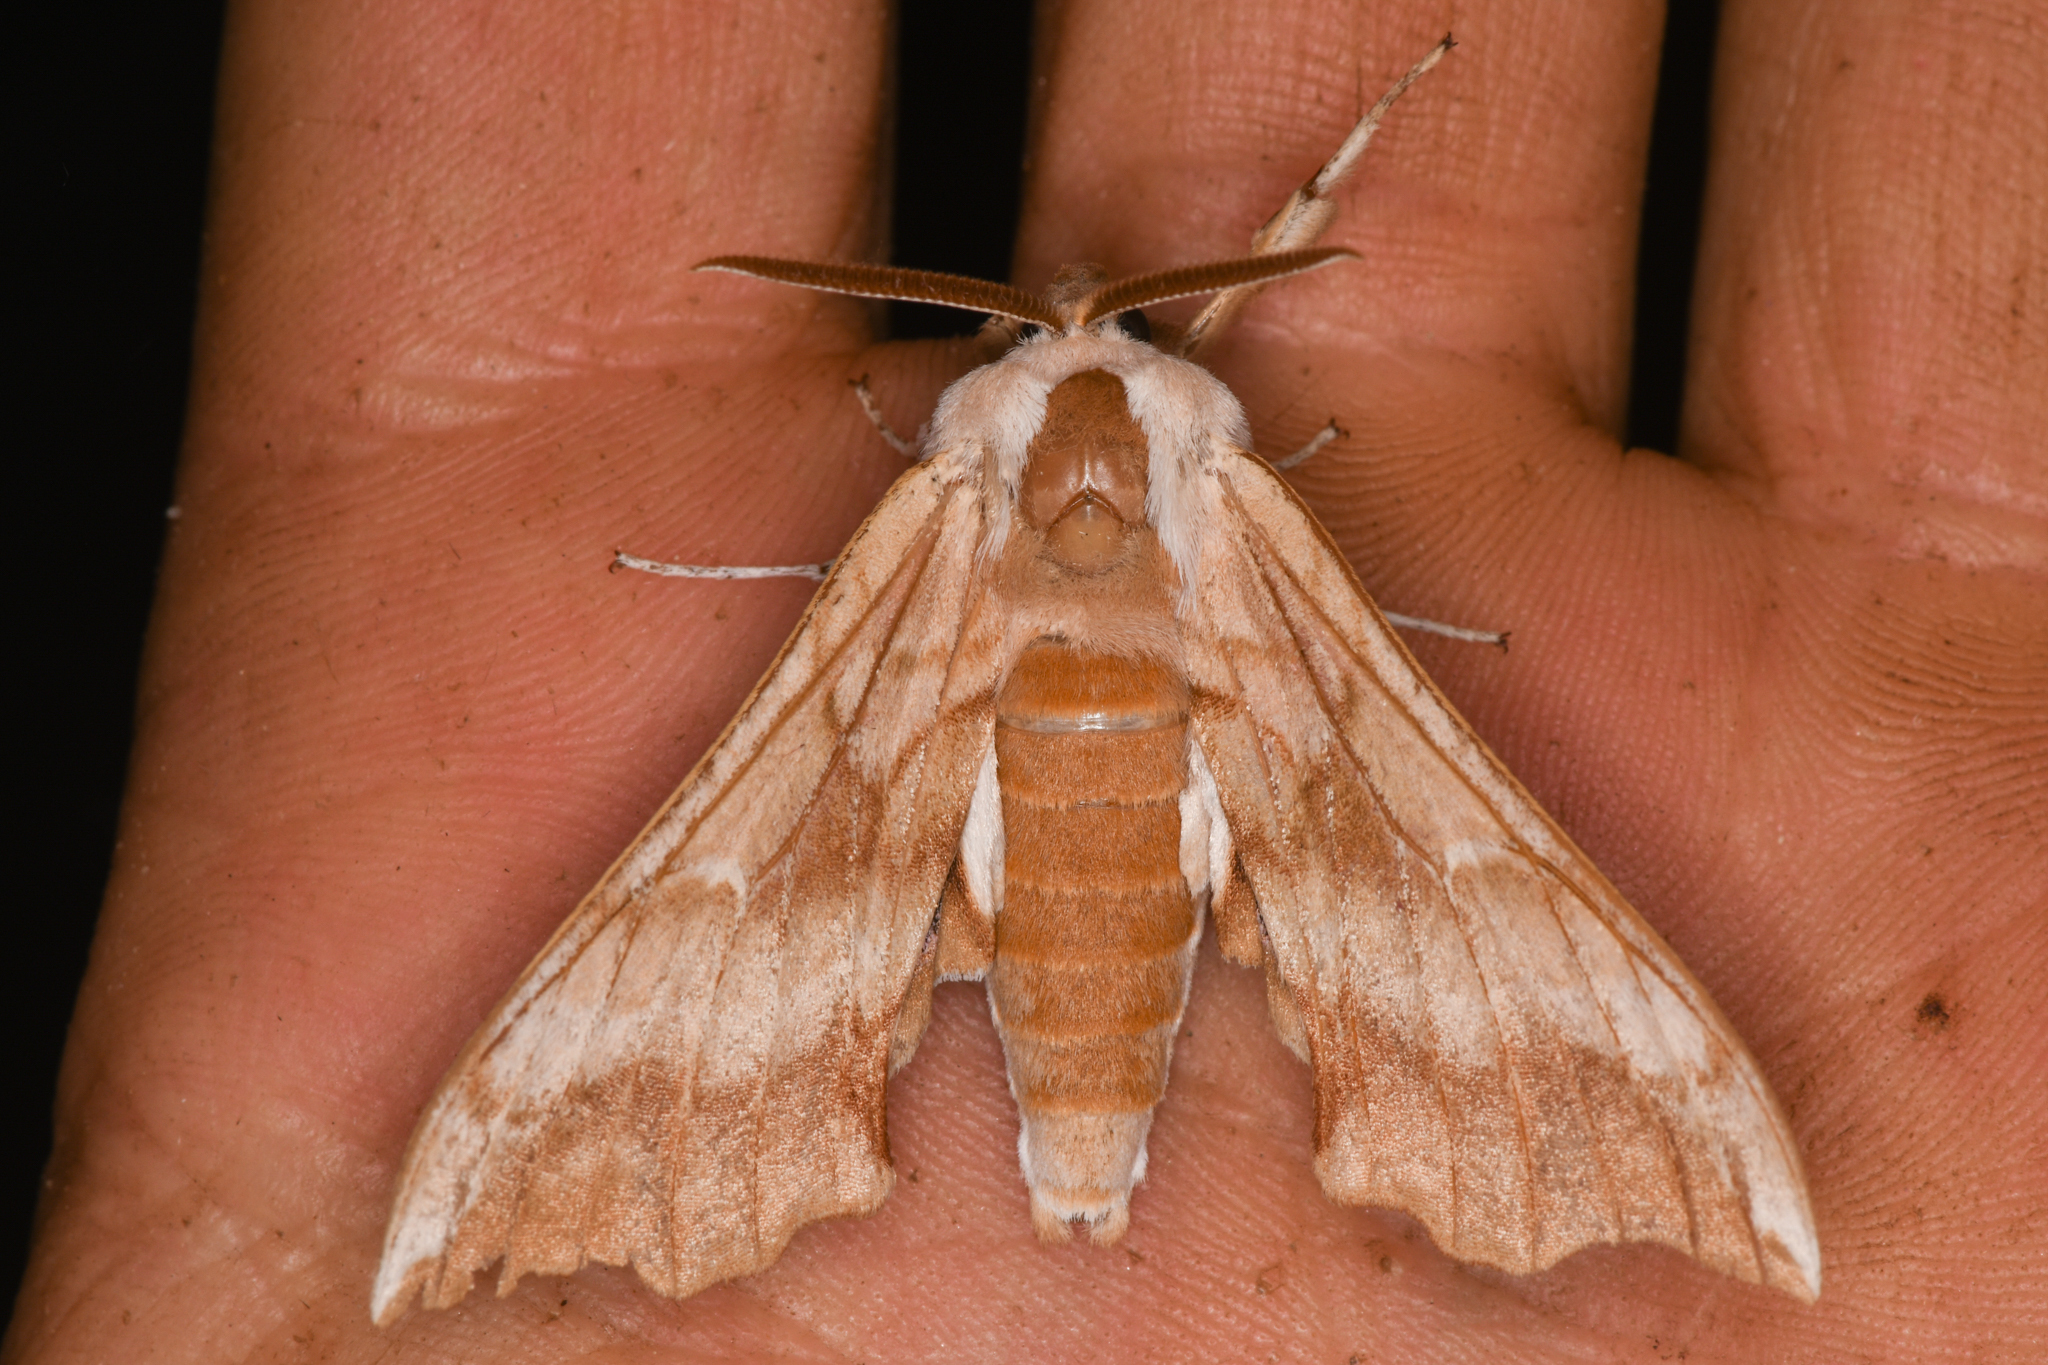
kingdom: Animalia
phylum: Arthropoda
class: Insecta
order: Lepidoptera
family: Sphingidae
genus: Smerinthus
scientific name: Smerinthus cerisyi
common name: Cerisy's sphinx moth
